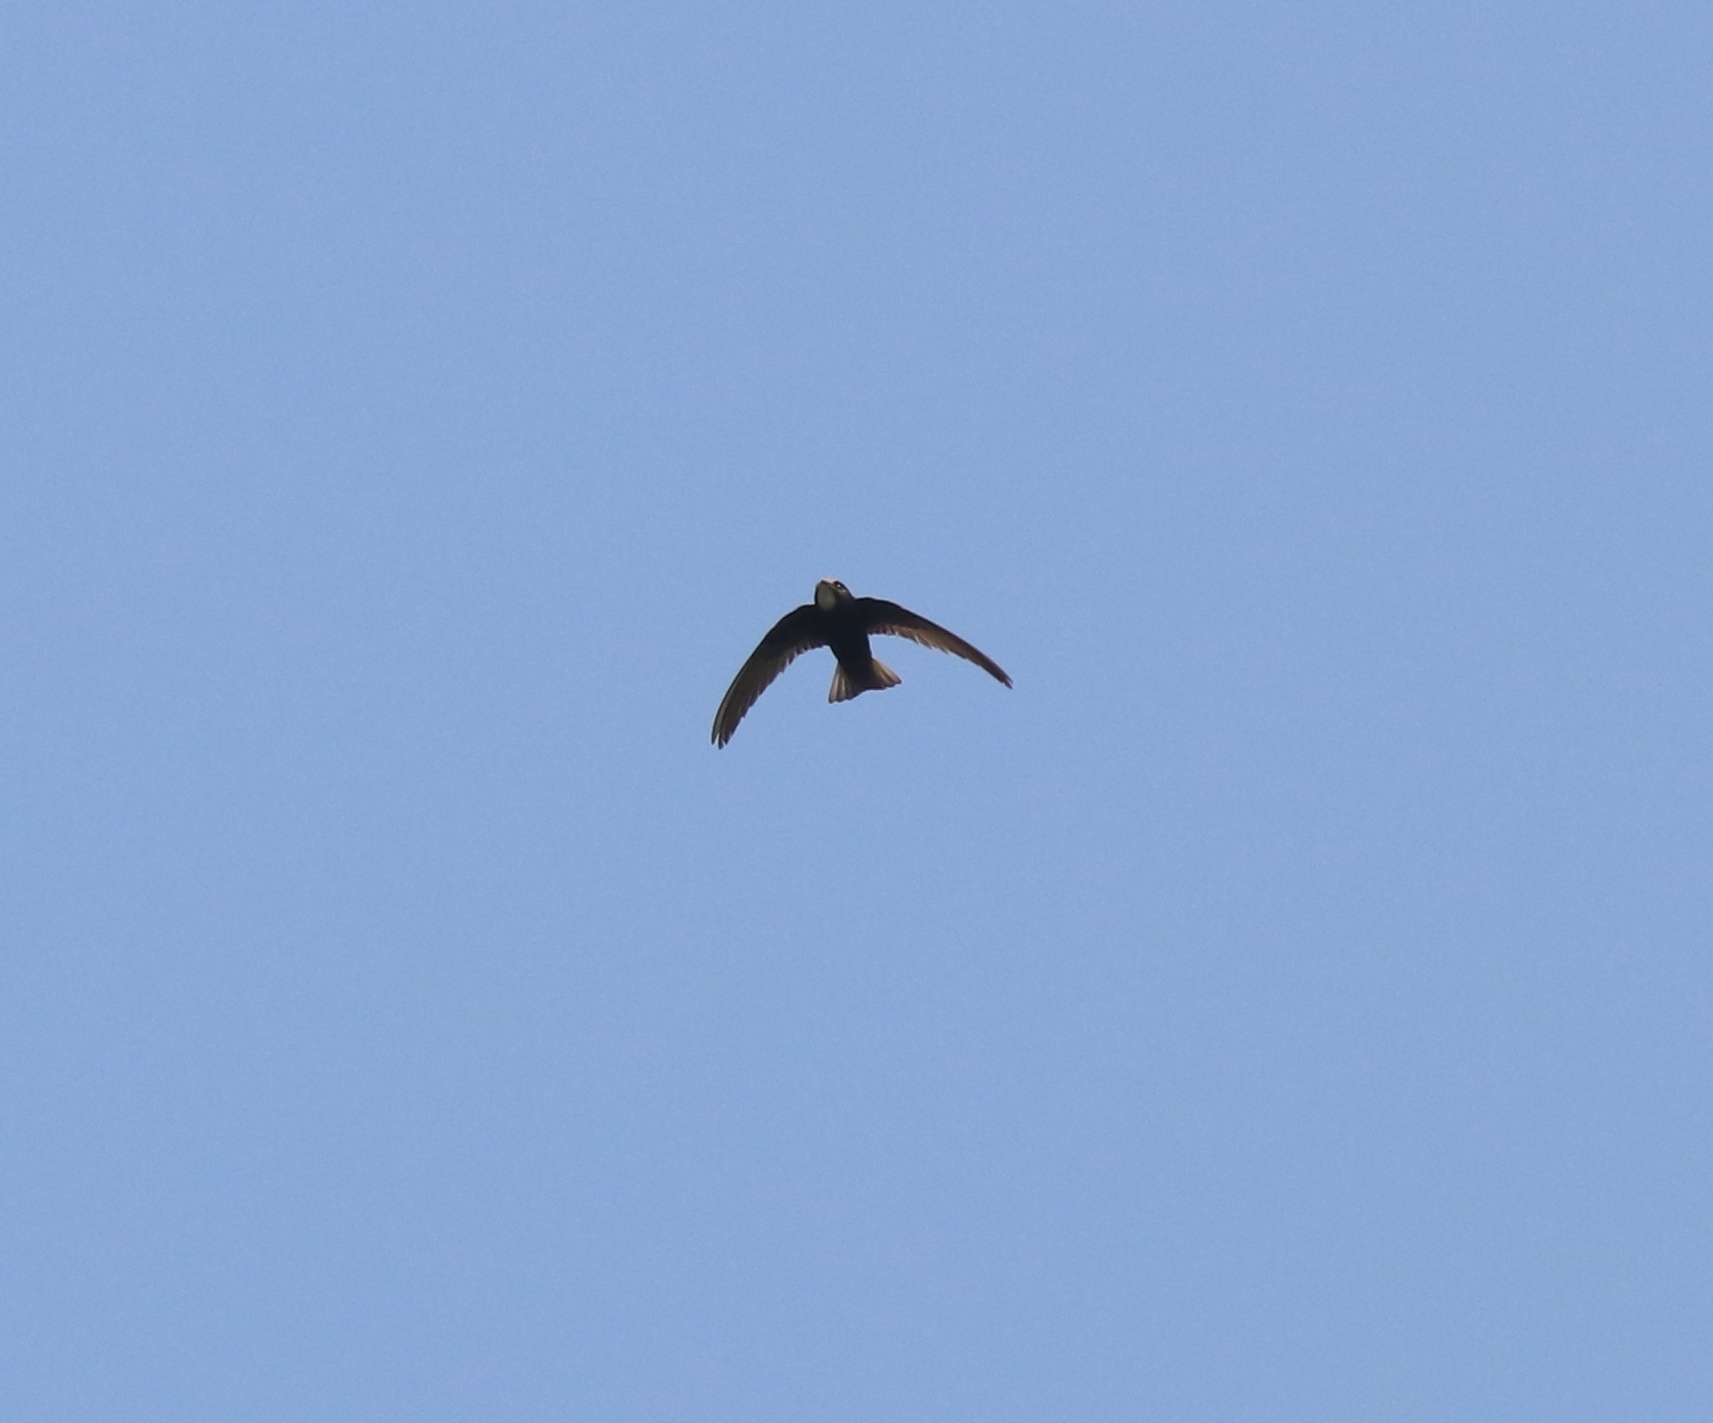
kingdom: Animalia
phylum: Chordata
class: Aves
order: Apodiformes
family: Apodidae
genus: Apus
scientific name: Apus affinis
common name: Little swift
